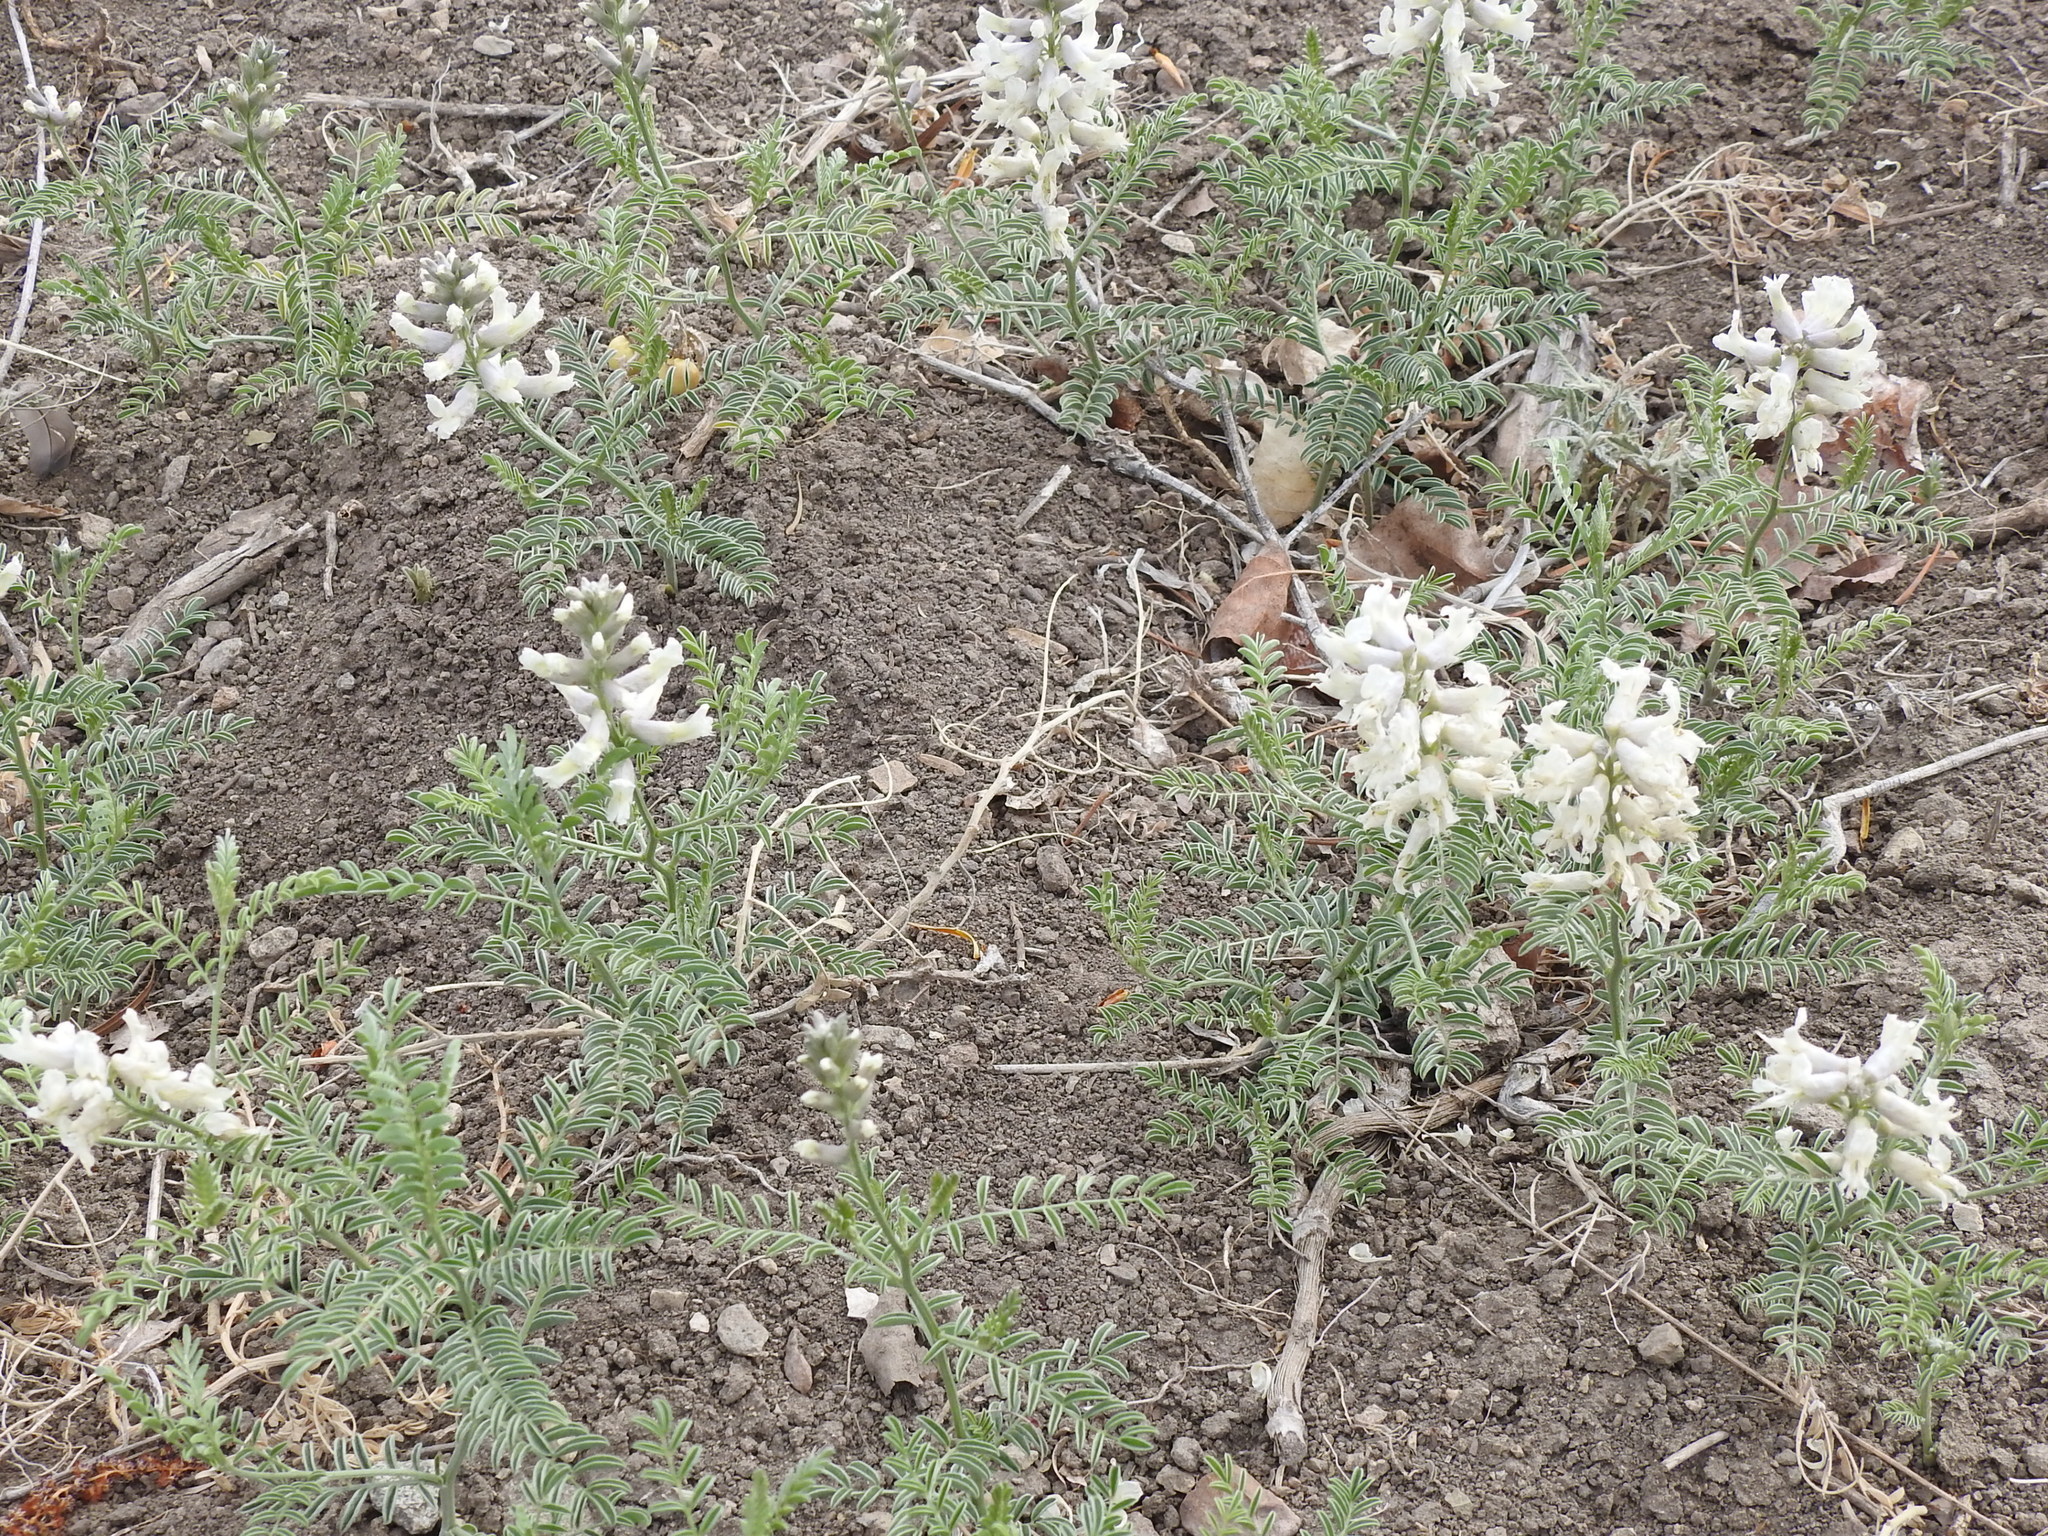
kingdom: Plantae
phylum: Tracheophyta
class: Magnoliopsida
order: Fabales
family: Fabaceae
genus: Sophora
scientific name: Sophora nuttalliana
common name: Silky sophora
